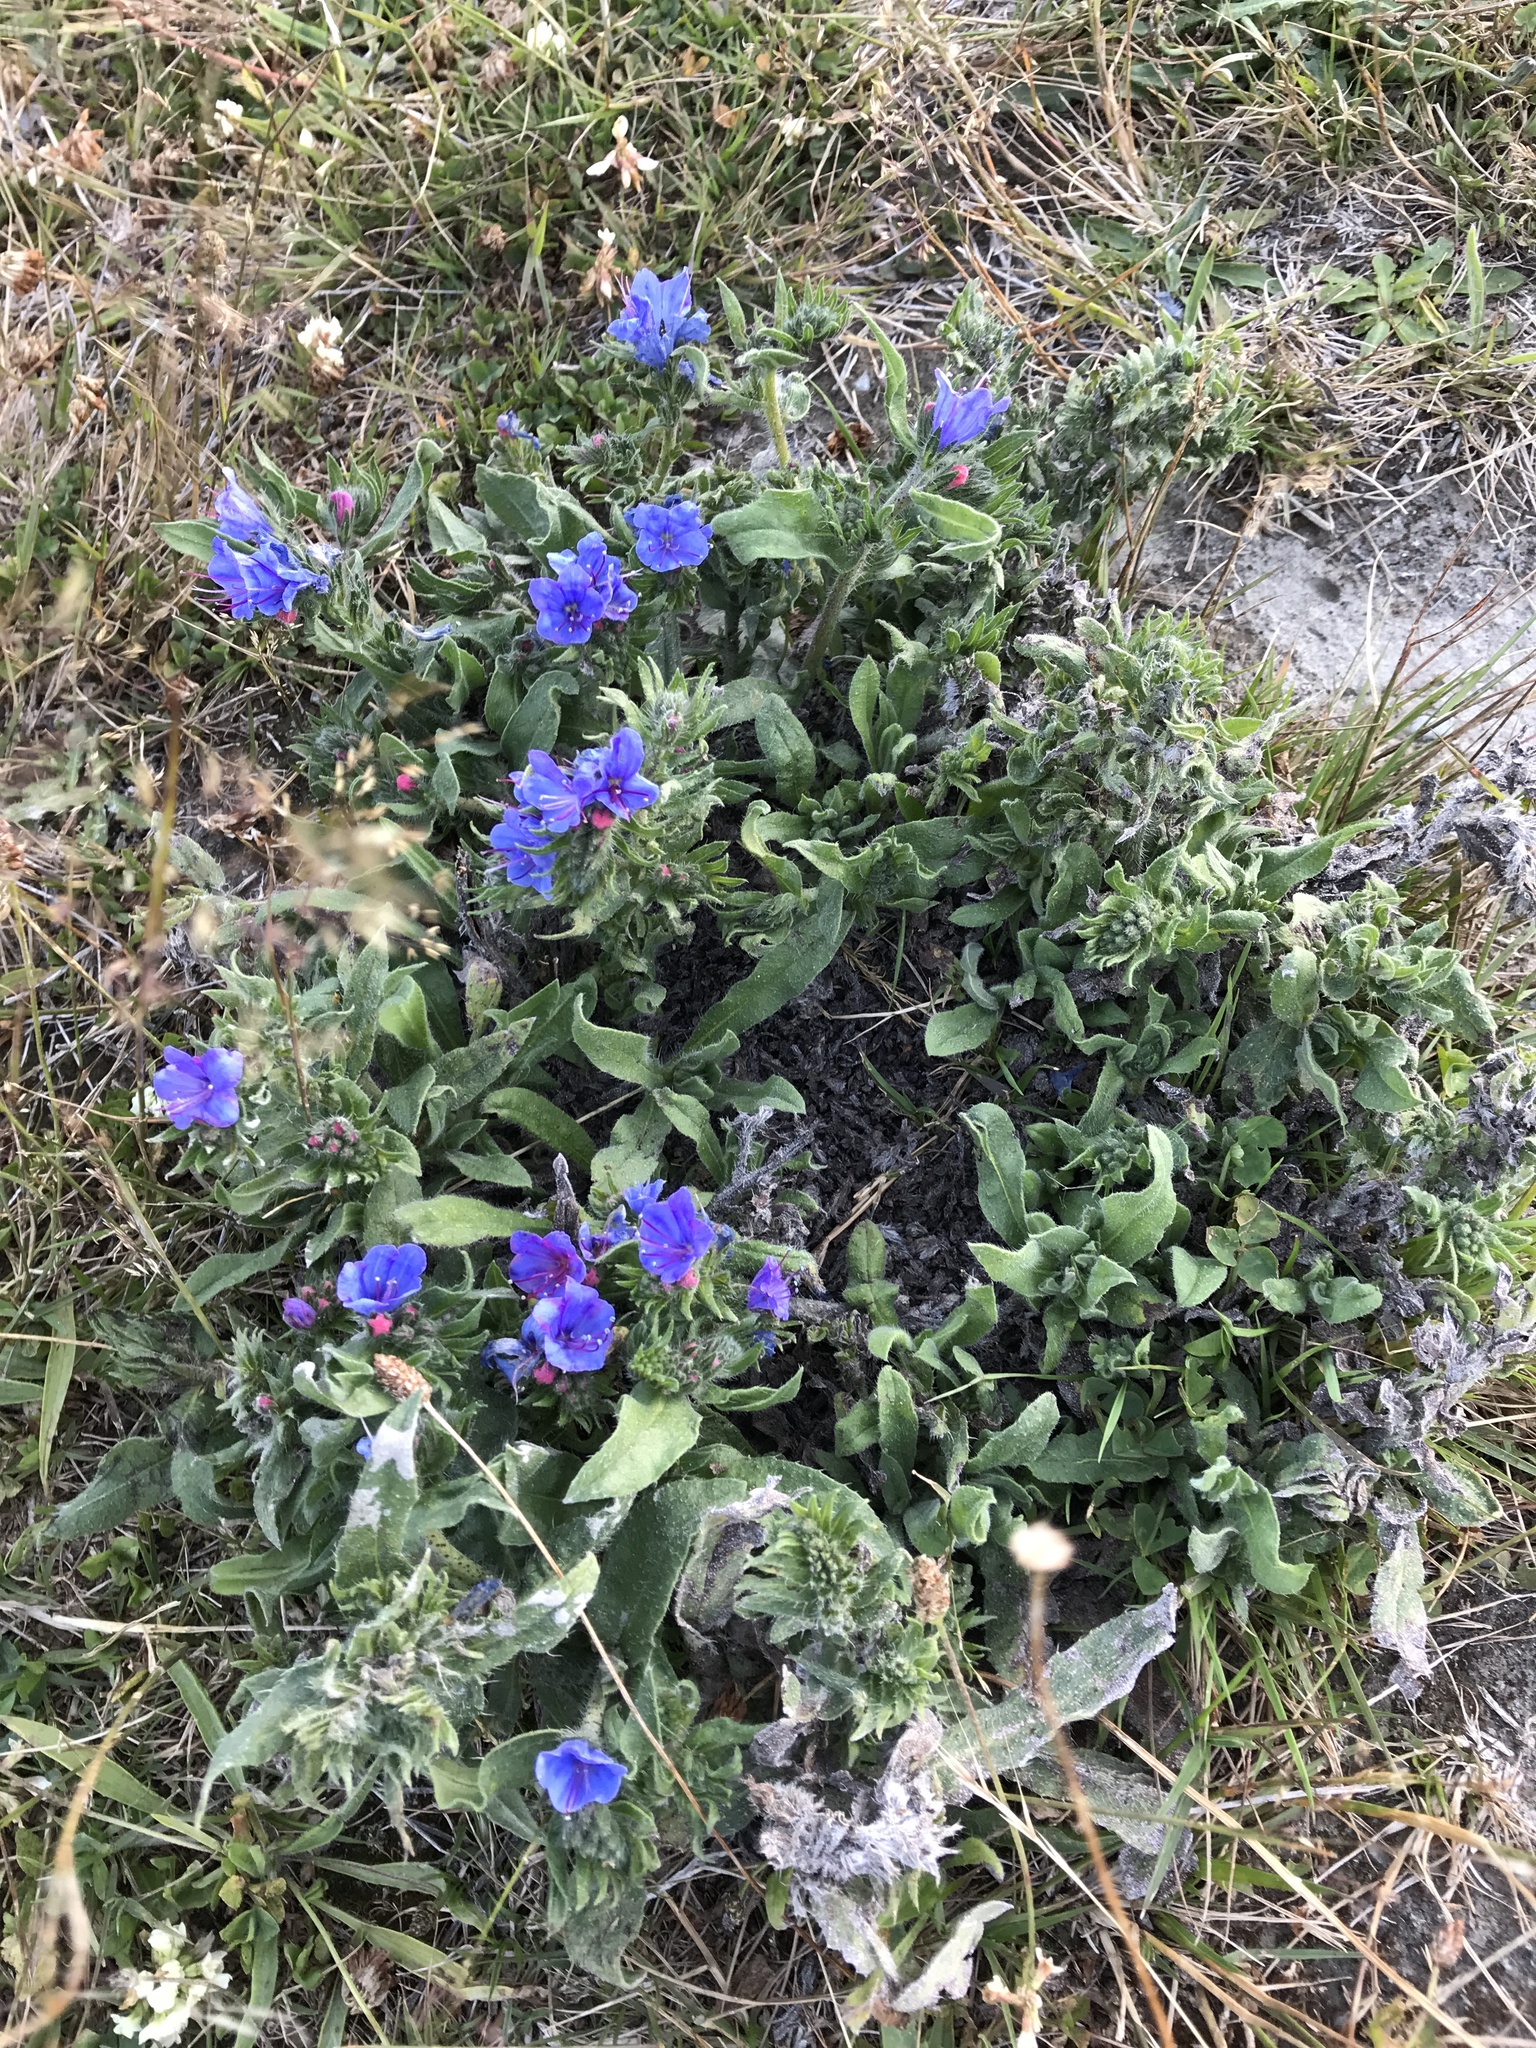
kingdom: Plantae
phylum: Tracheophyta
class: Magnoliopsida
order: Boraginales
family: Boraginaceae
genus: Echium
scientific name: Echium vulgare
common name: Common viper's bugloss
